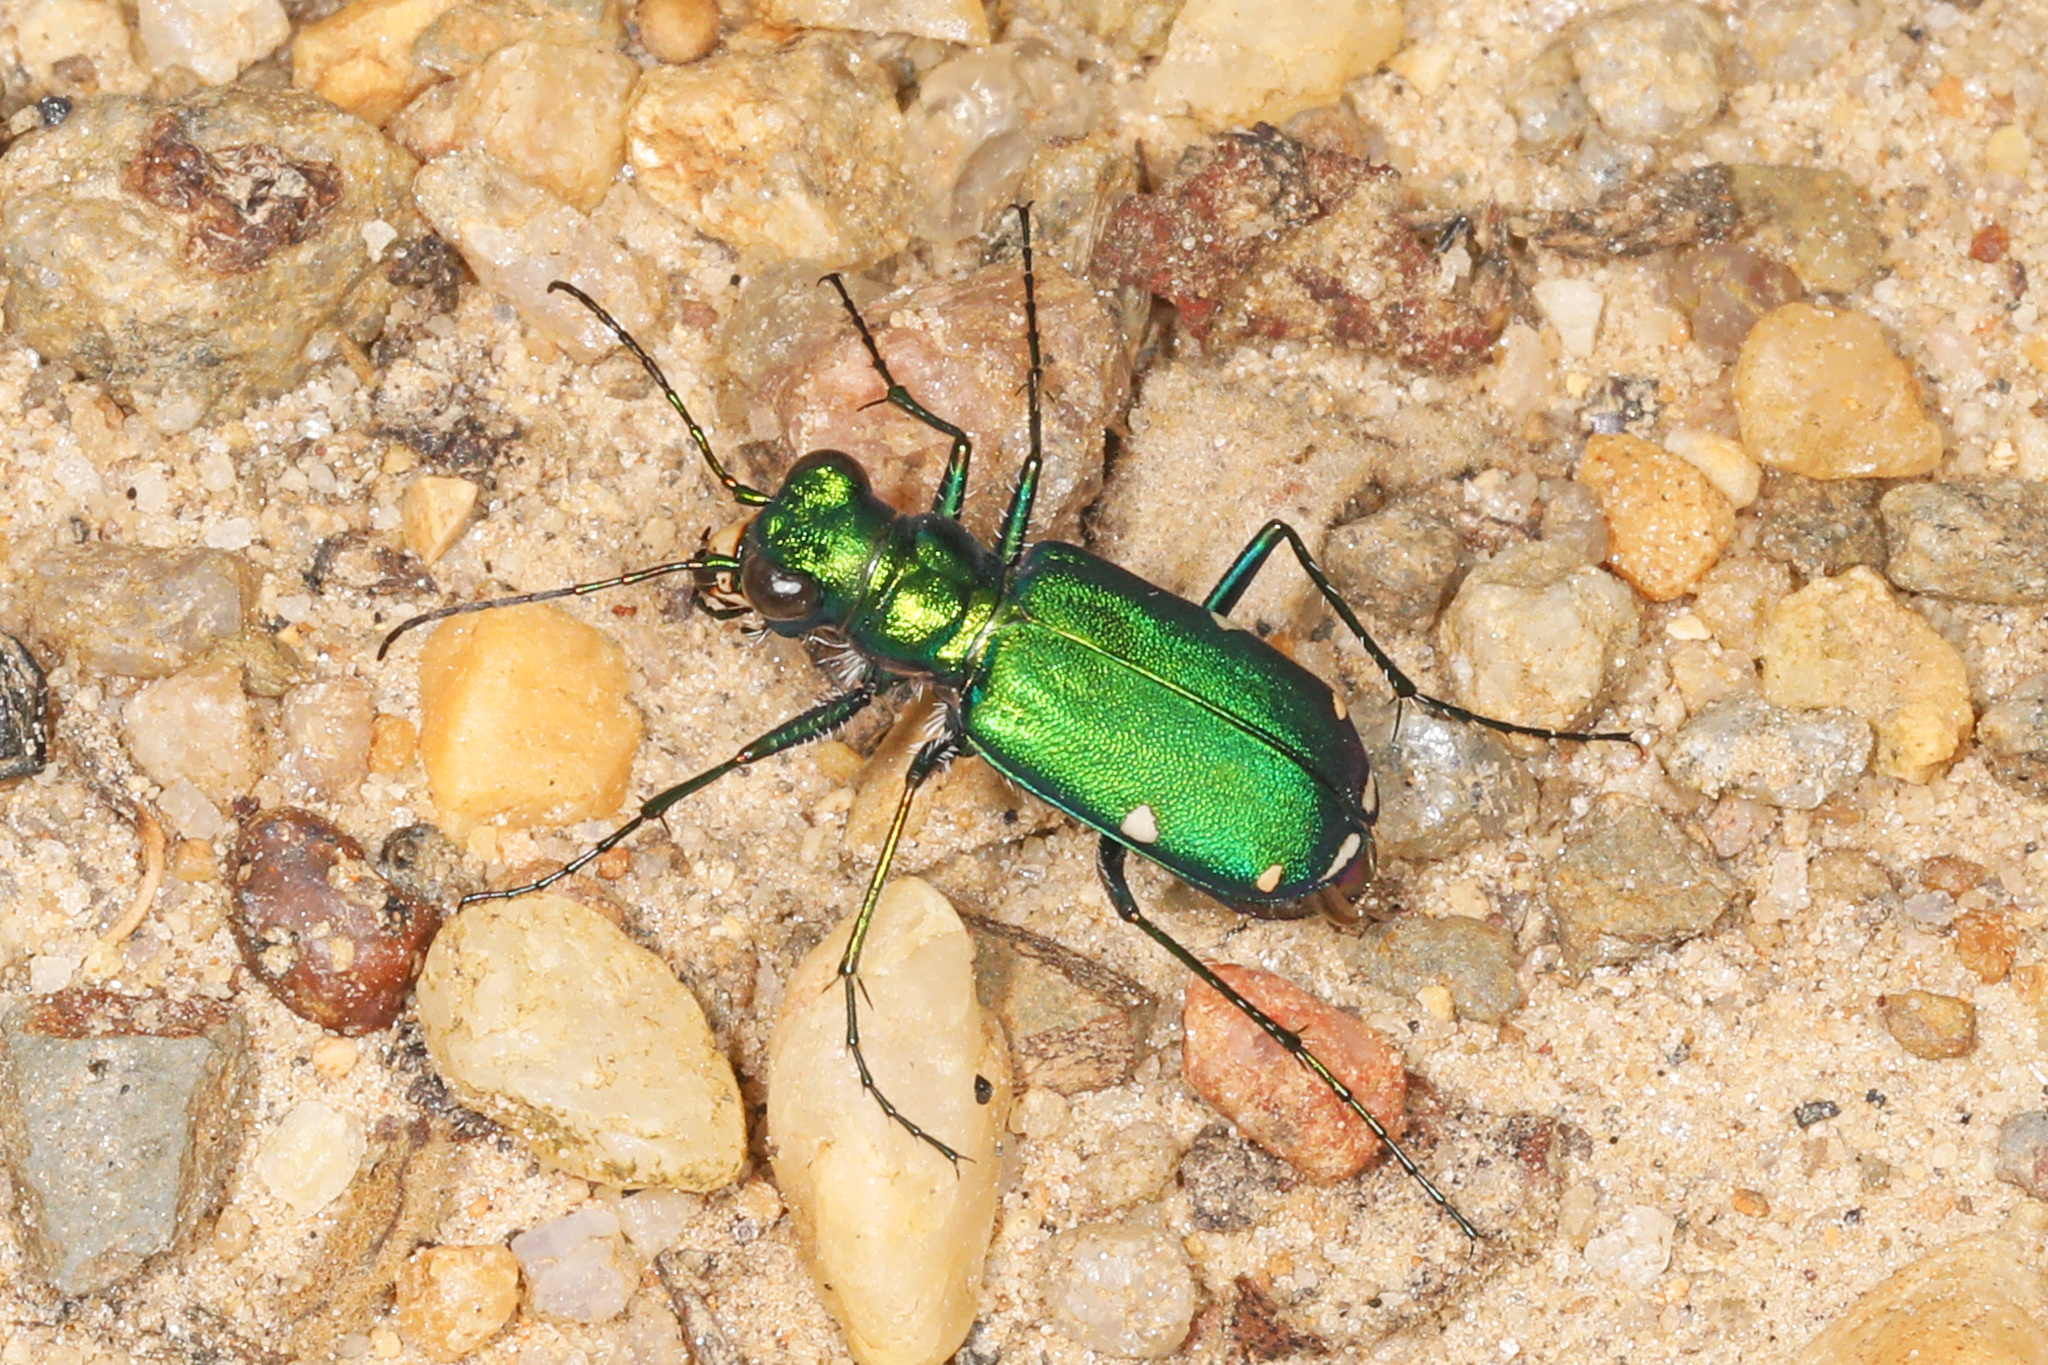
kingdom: Animalia
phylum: Arthropoda
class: Insecta
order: Coleoptera
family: Carabidae
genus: Cicindela
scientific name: Cicindela sexguttata
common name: Six-spotted tiger beetle
